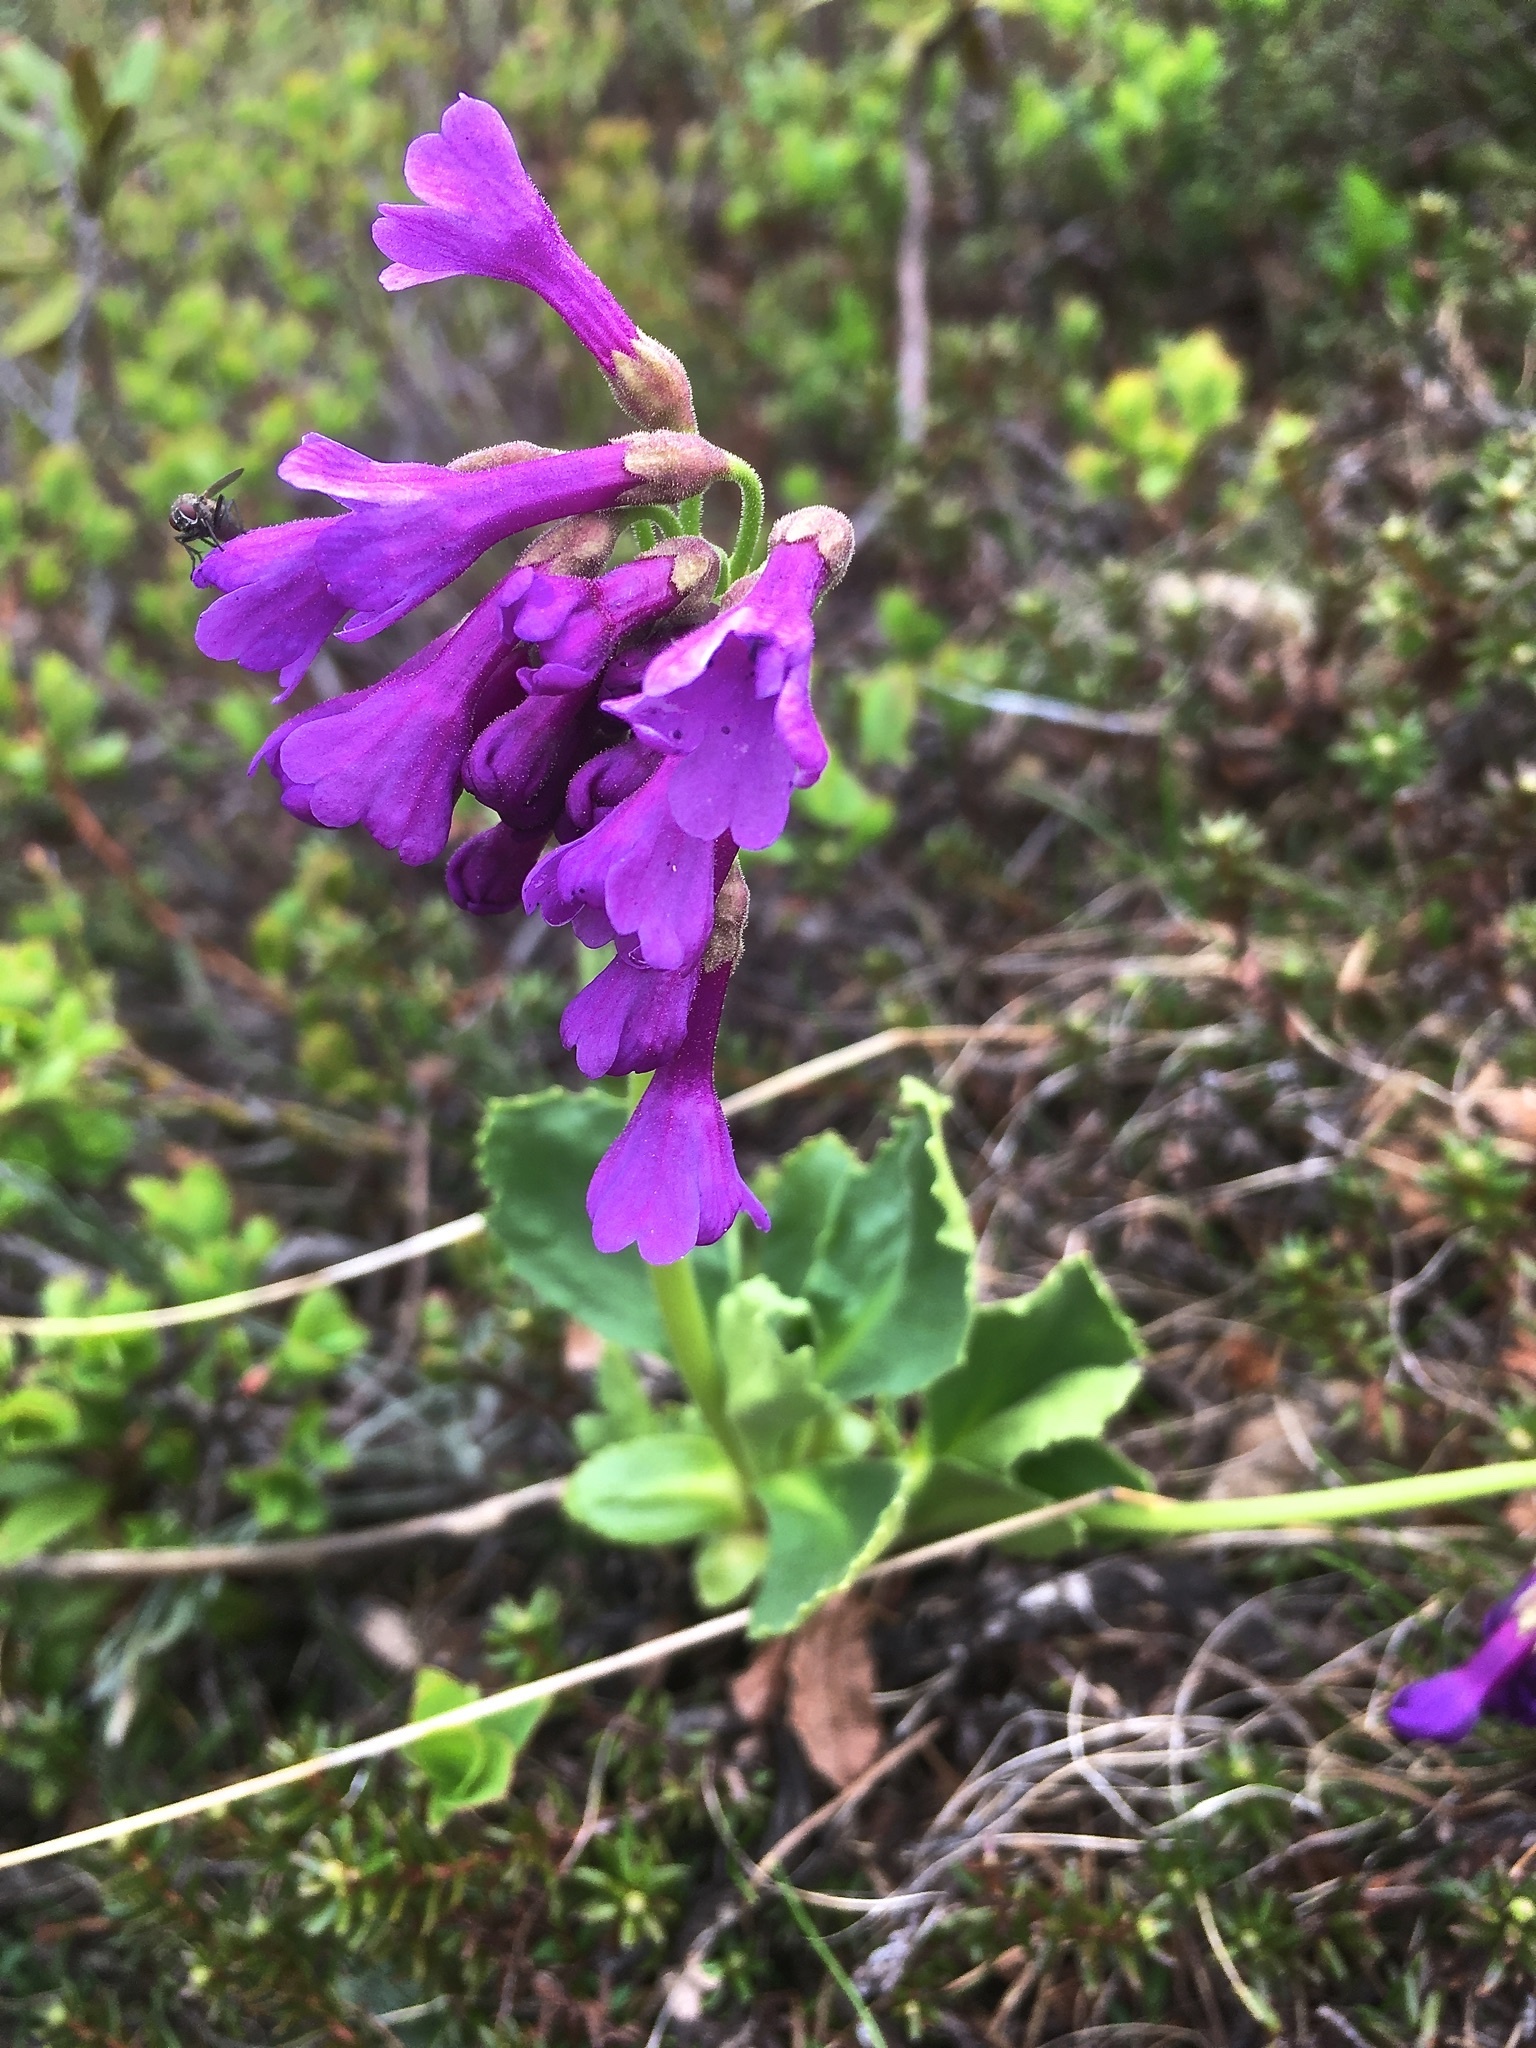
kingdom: Plantae
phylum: Tracheophyta
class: Magnoliopsida
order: Ericales
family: Primulaceae
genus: Primula
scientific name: Primula latifolia
